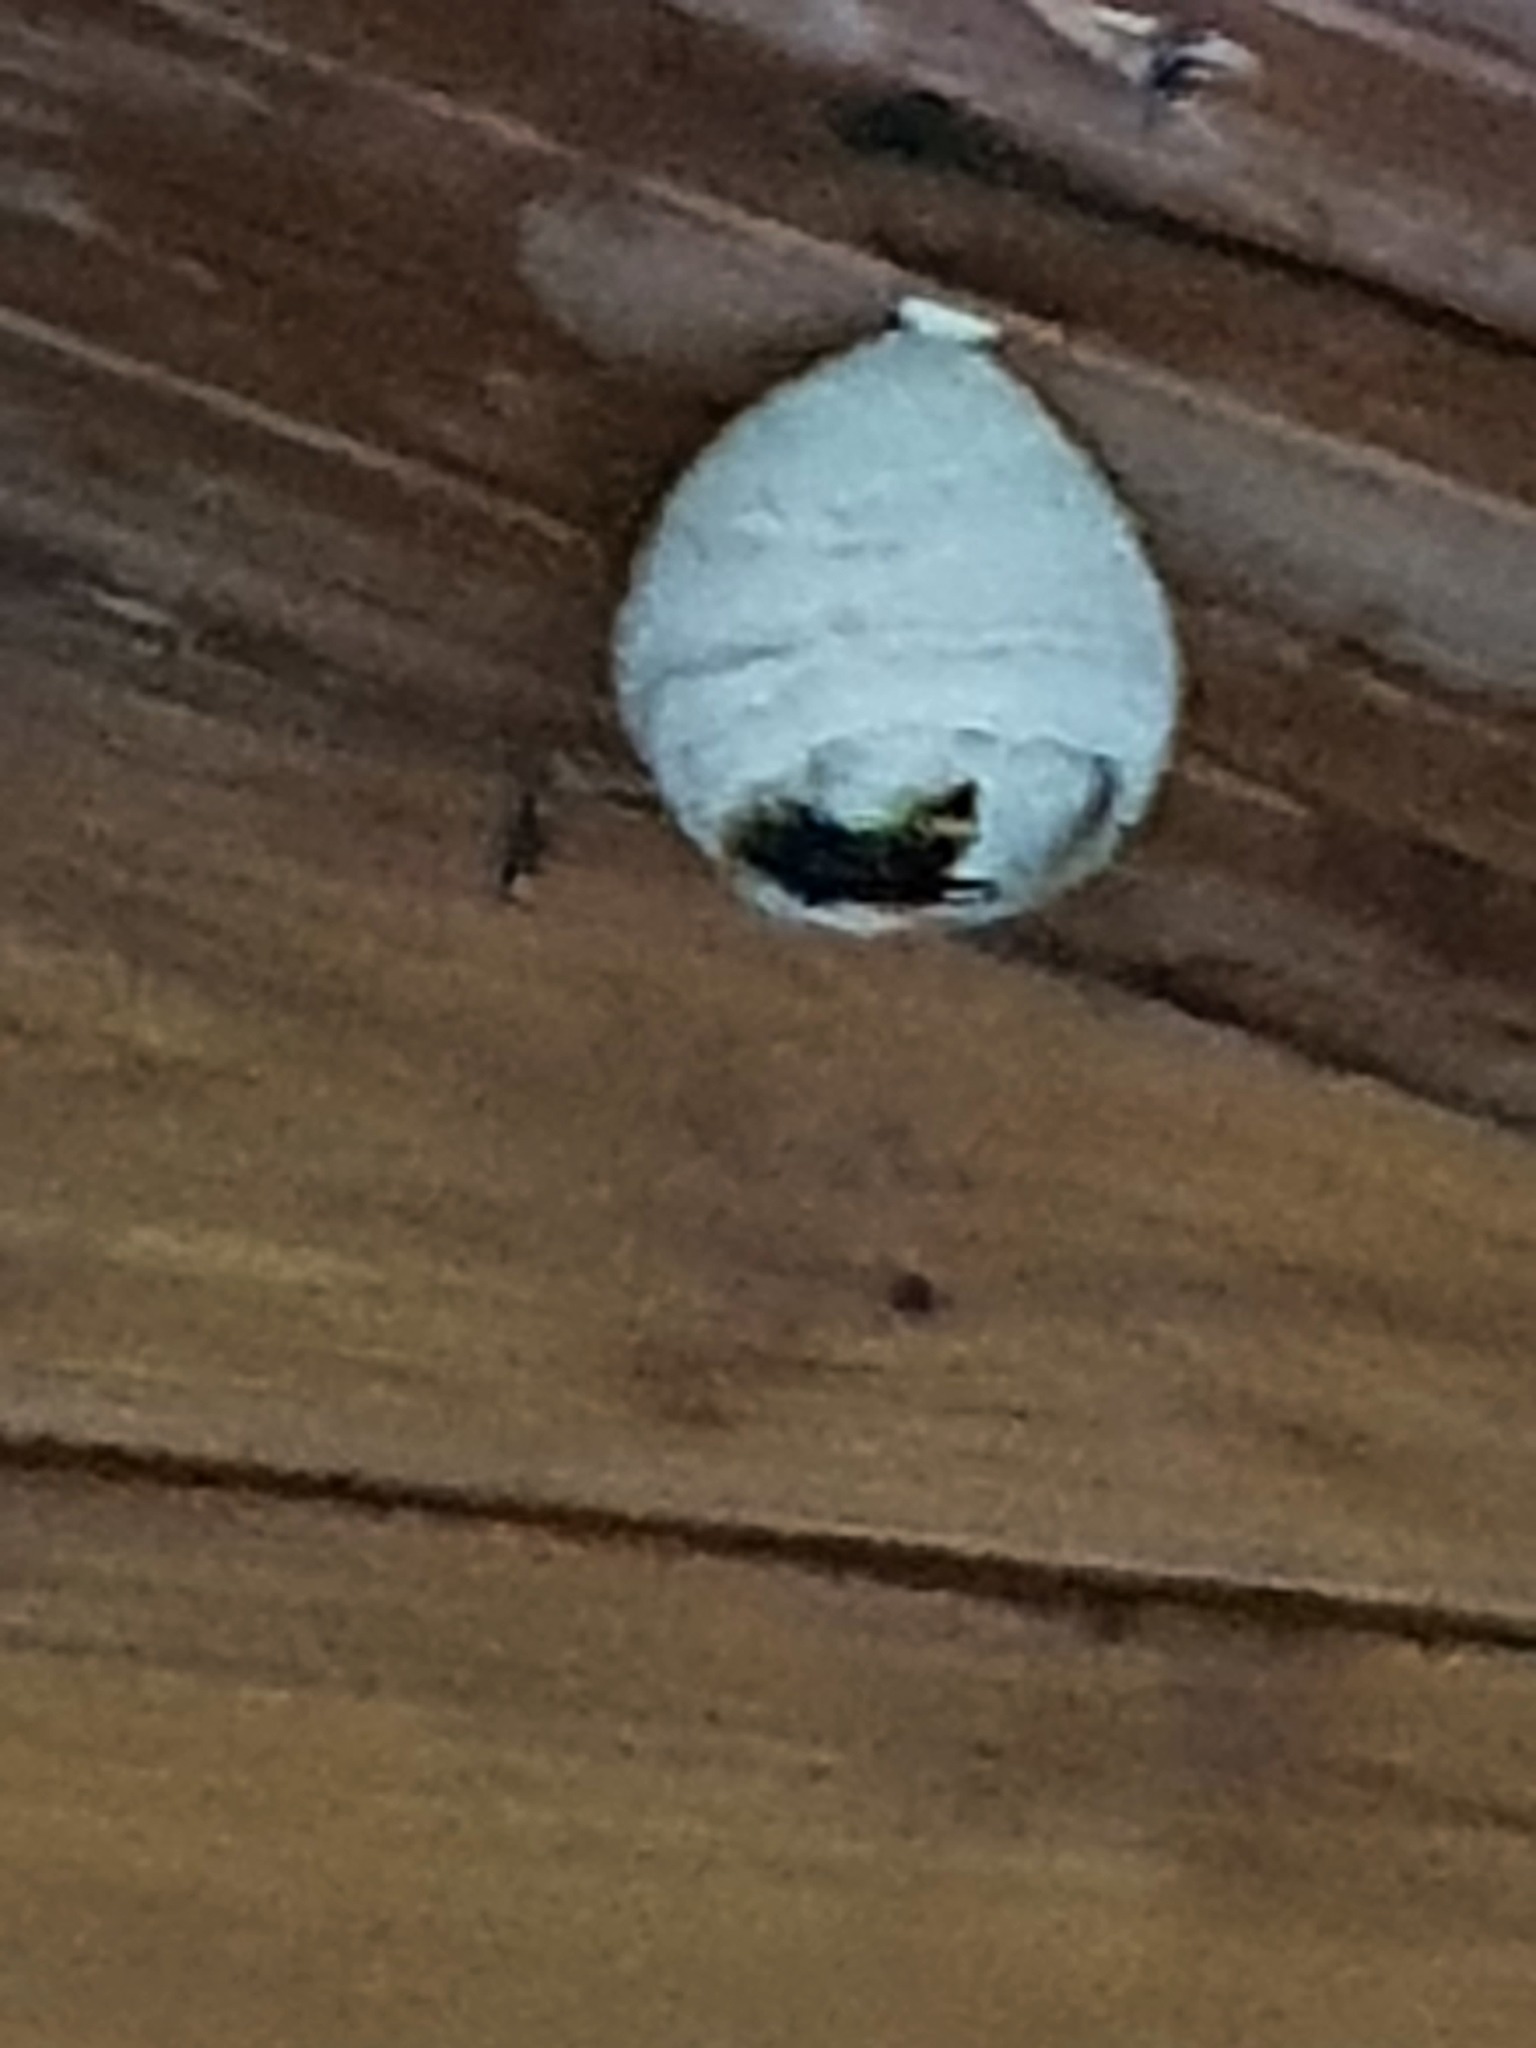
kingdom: Animalia
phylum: Arthropoda
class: Insecta
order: Hymenoptera
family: Vespidae
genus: Vespa
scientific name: Vespa velutina
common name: Asian hornet
